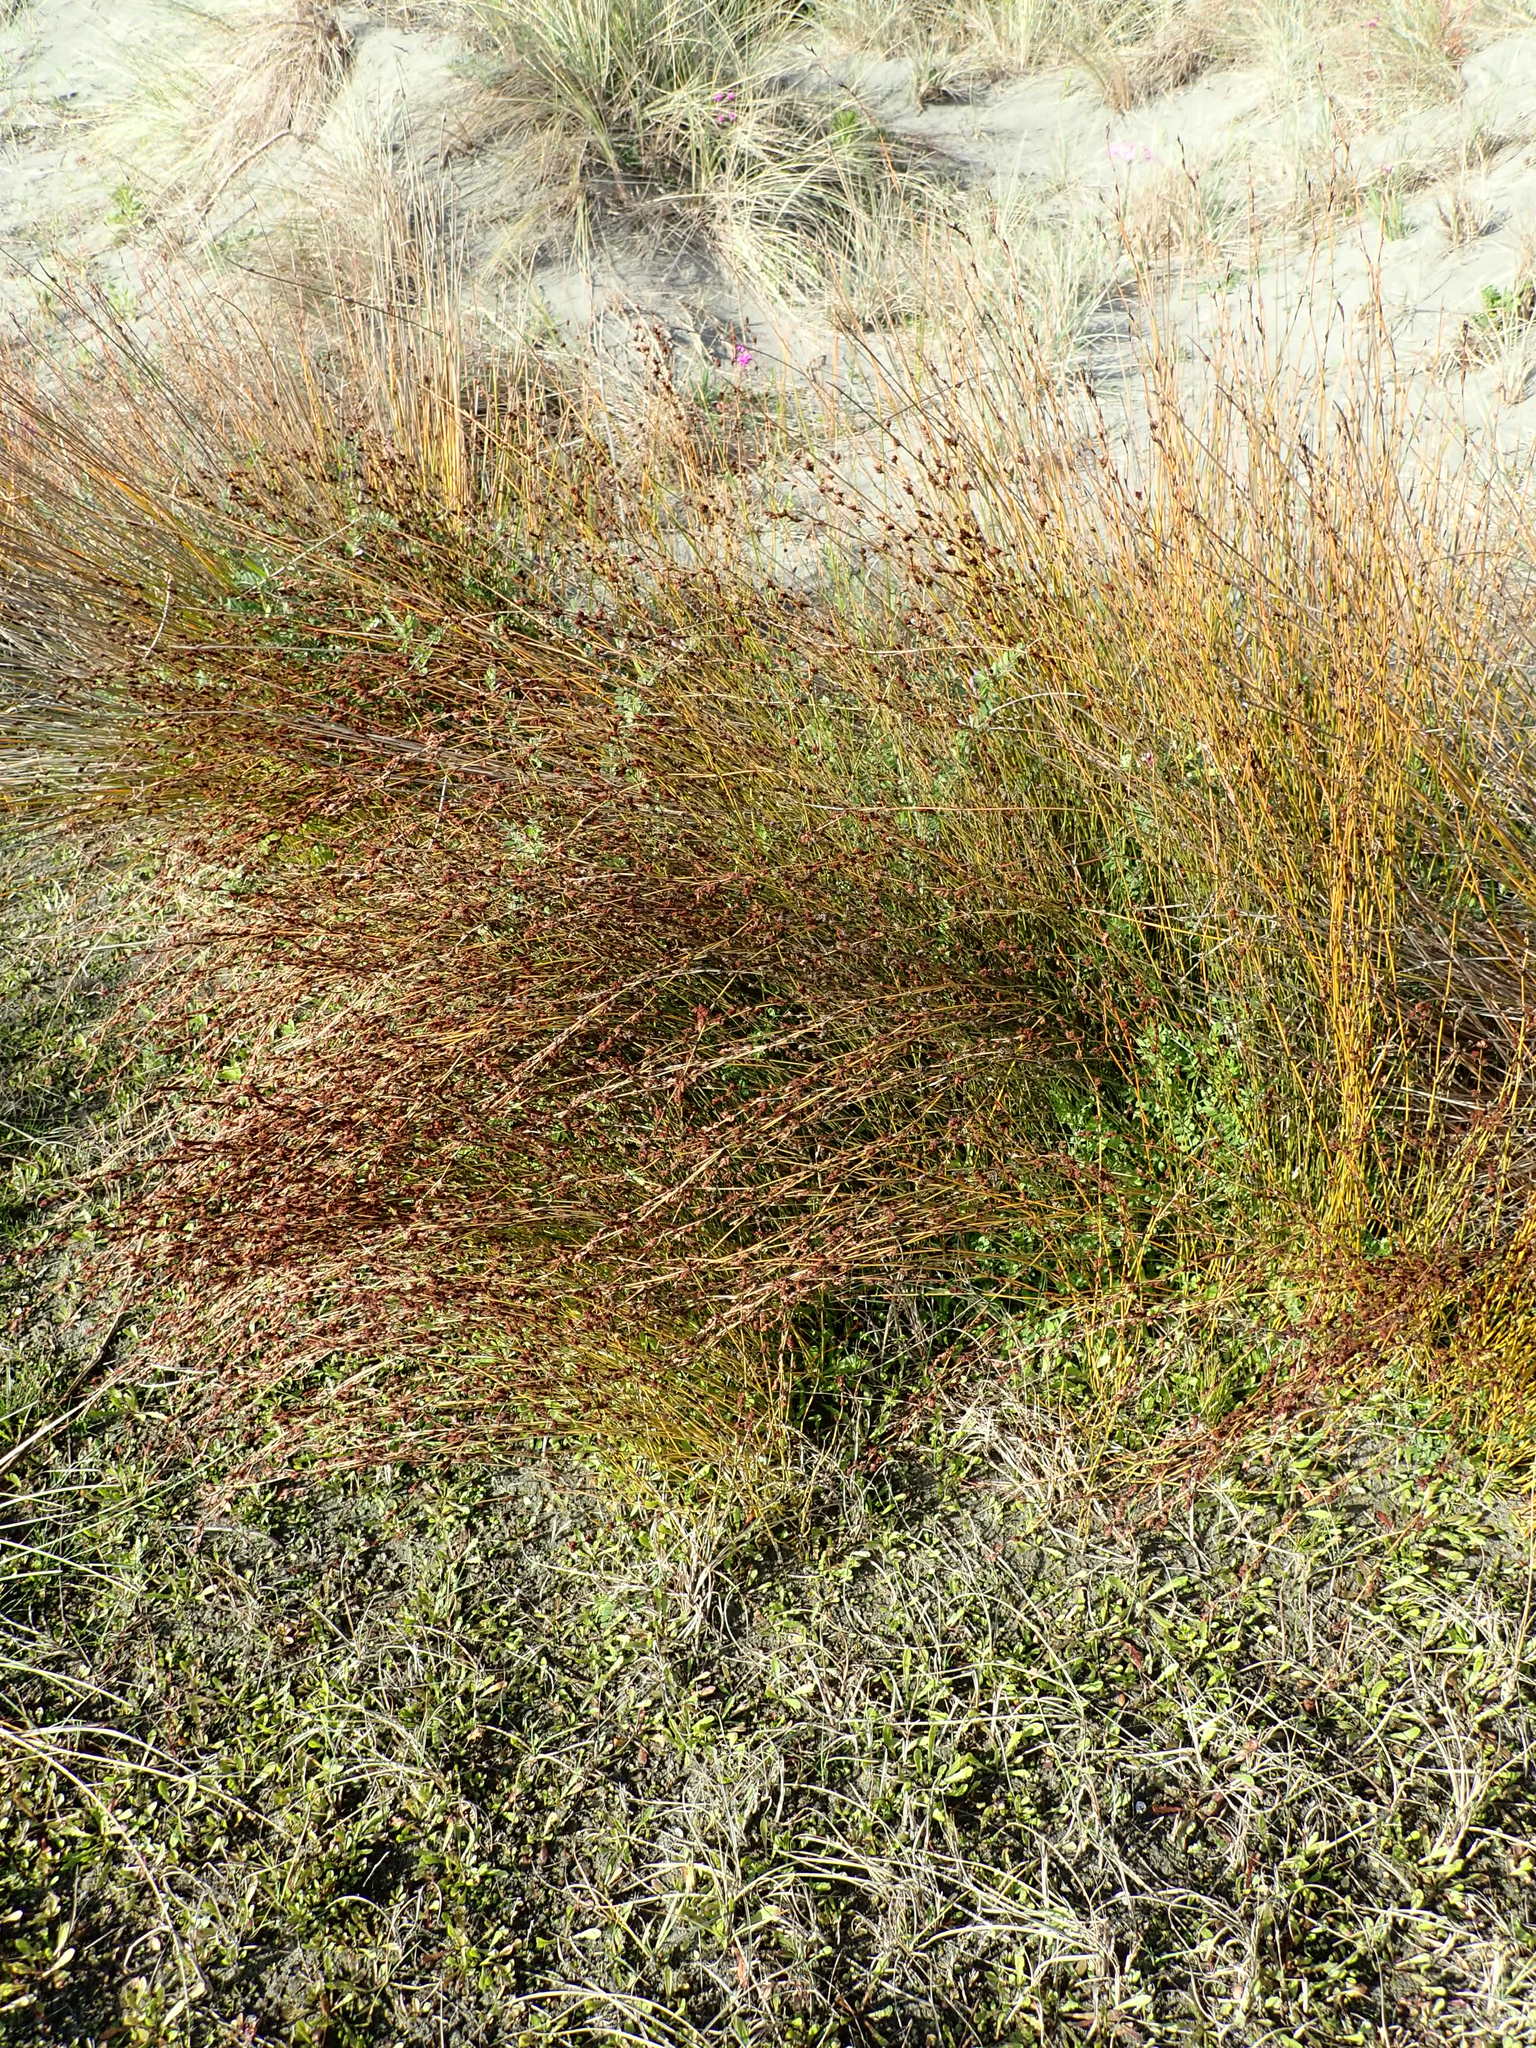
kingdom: Plantae
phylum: Tracheophyta
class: Liliopsida
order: Poales
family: Restionaceae
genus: Apodasmia
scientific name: Apodasmia similis
